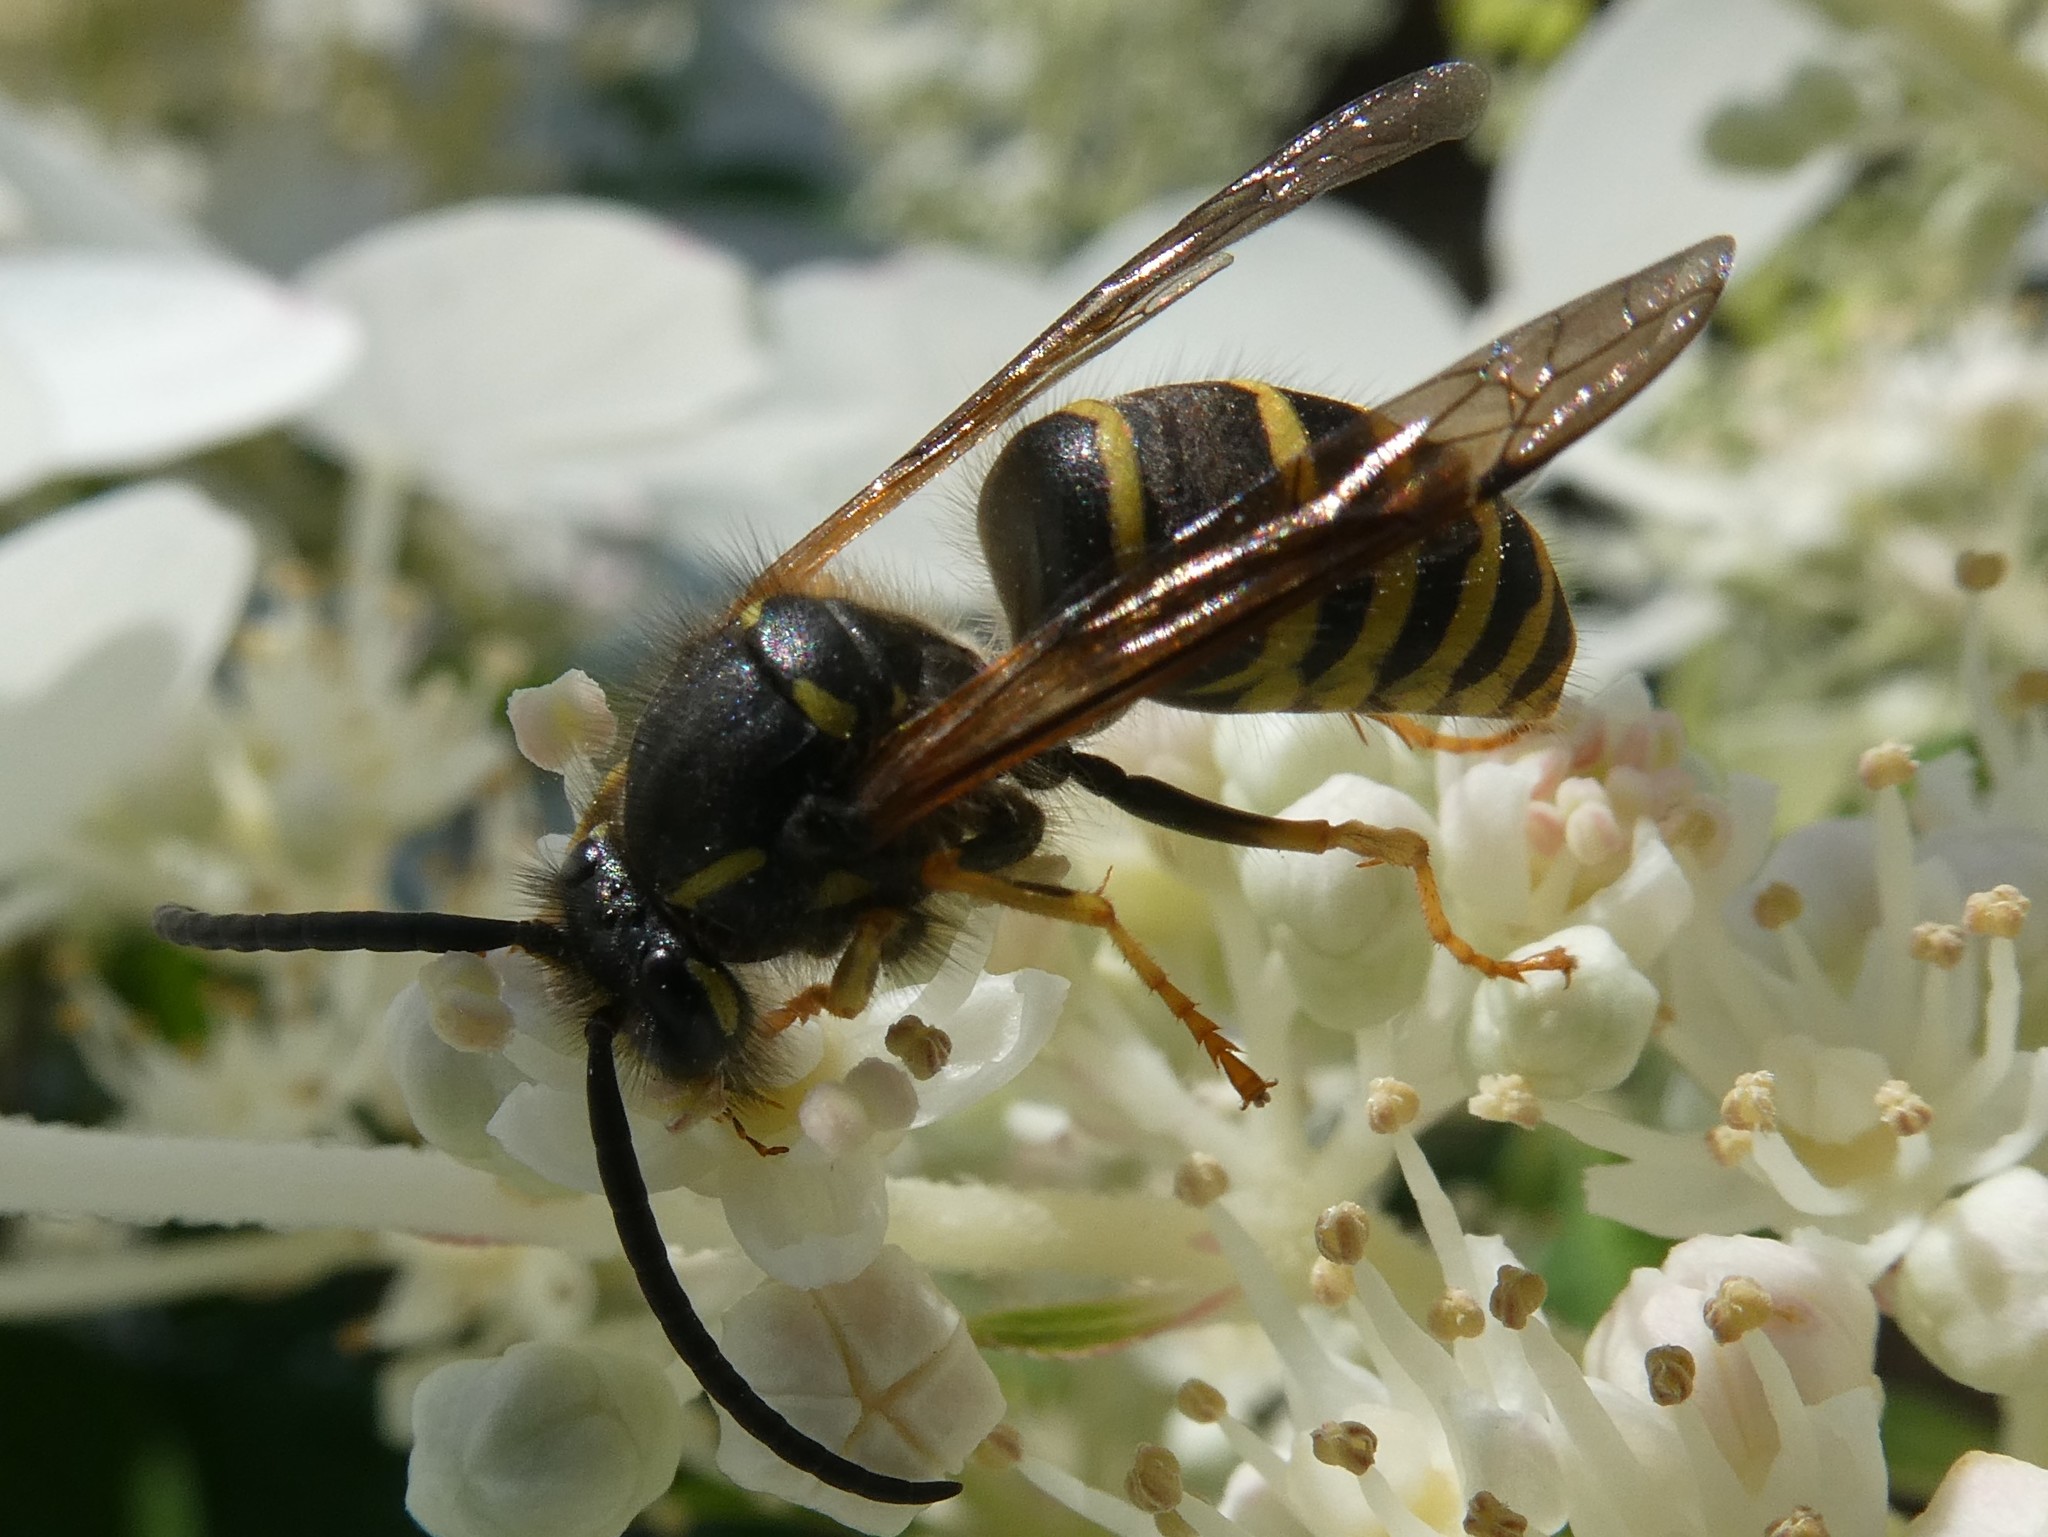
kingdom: Animalia
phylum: Arthropoda
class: Insecta
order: Hymenoptera
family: Vespidae
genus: Dolichovespula
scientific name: Dolichovespula norvegicoides
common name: Northern aerial yellowjacket
